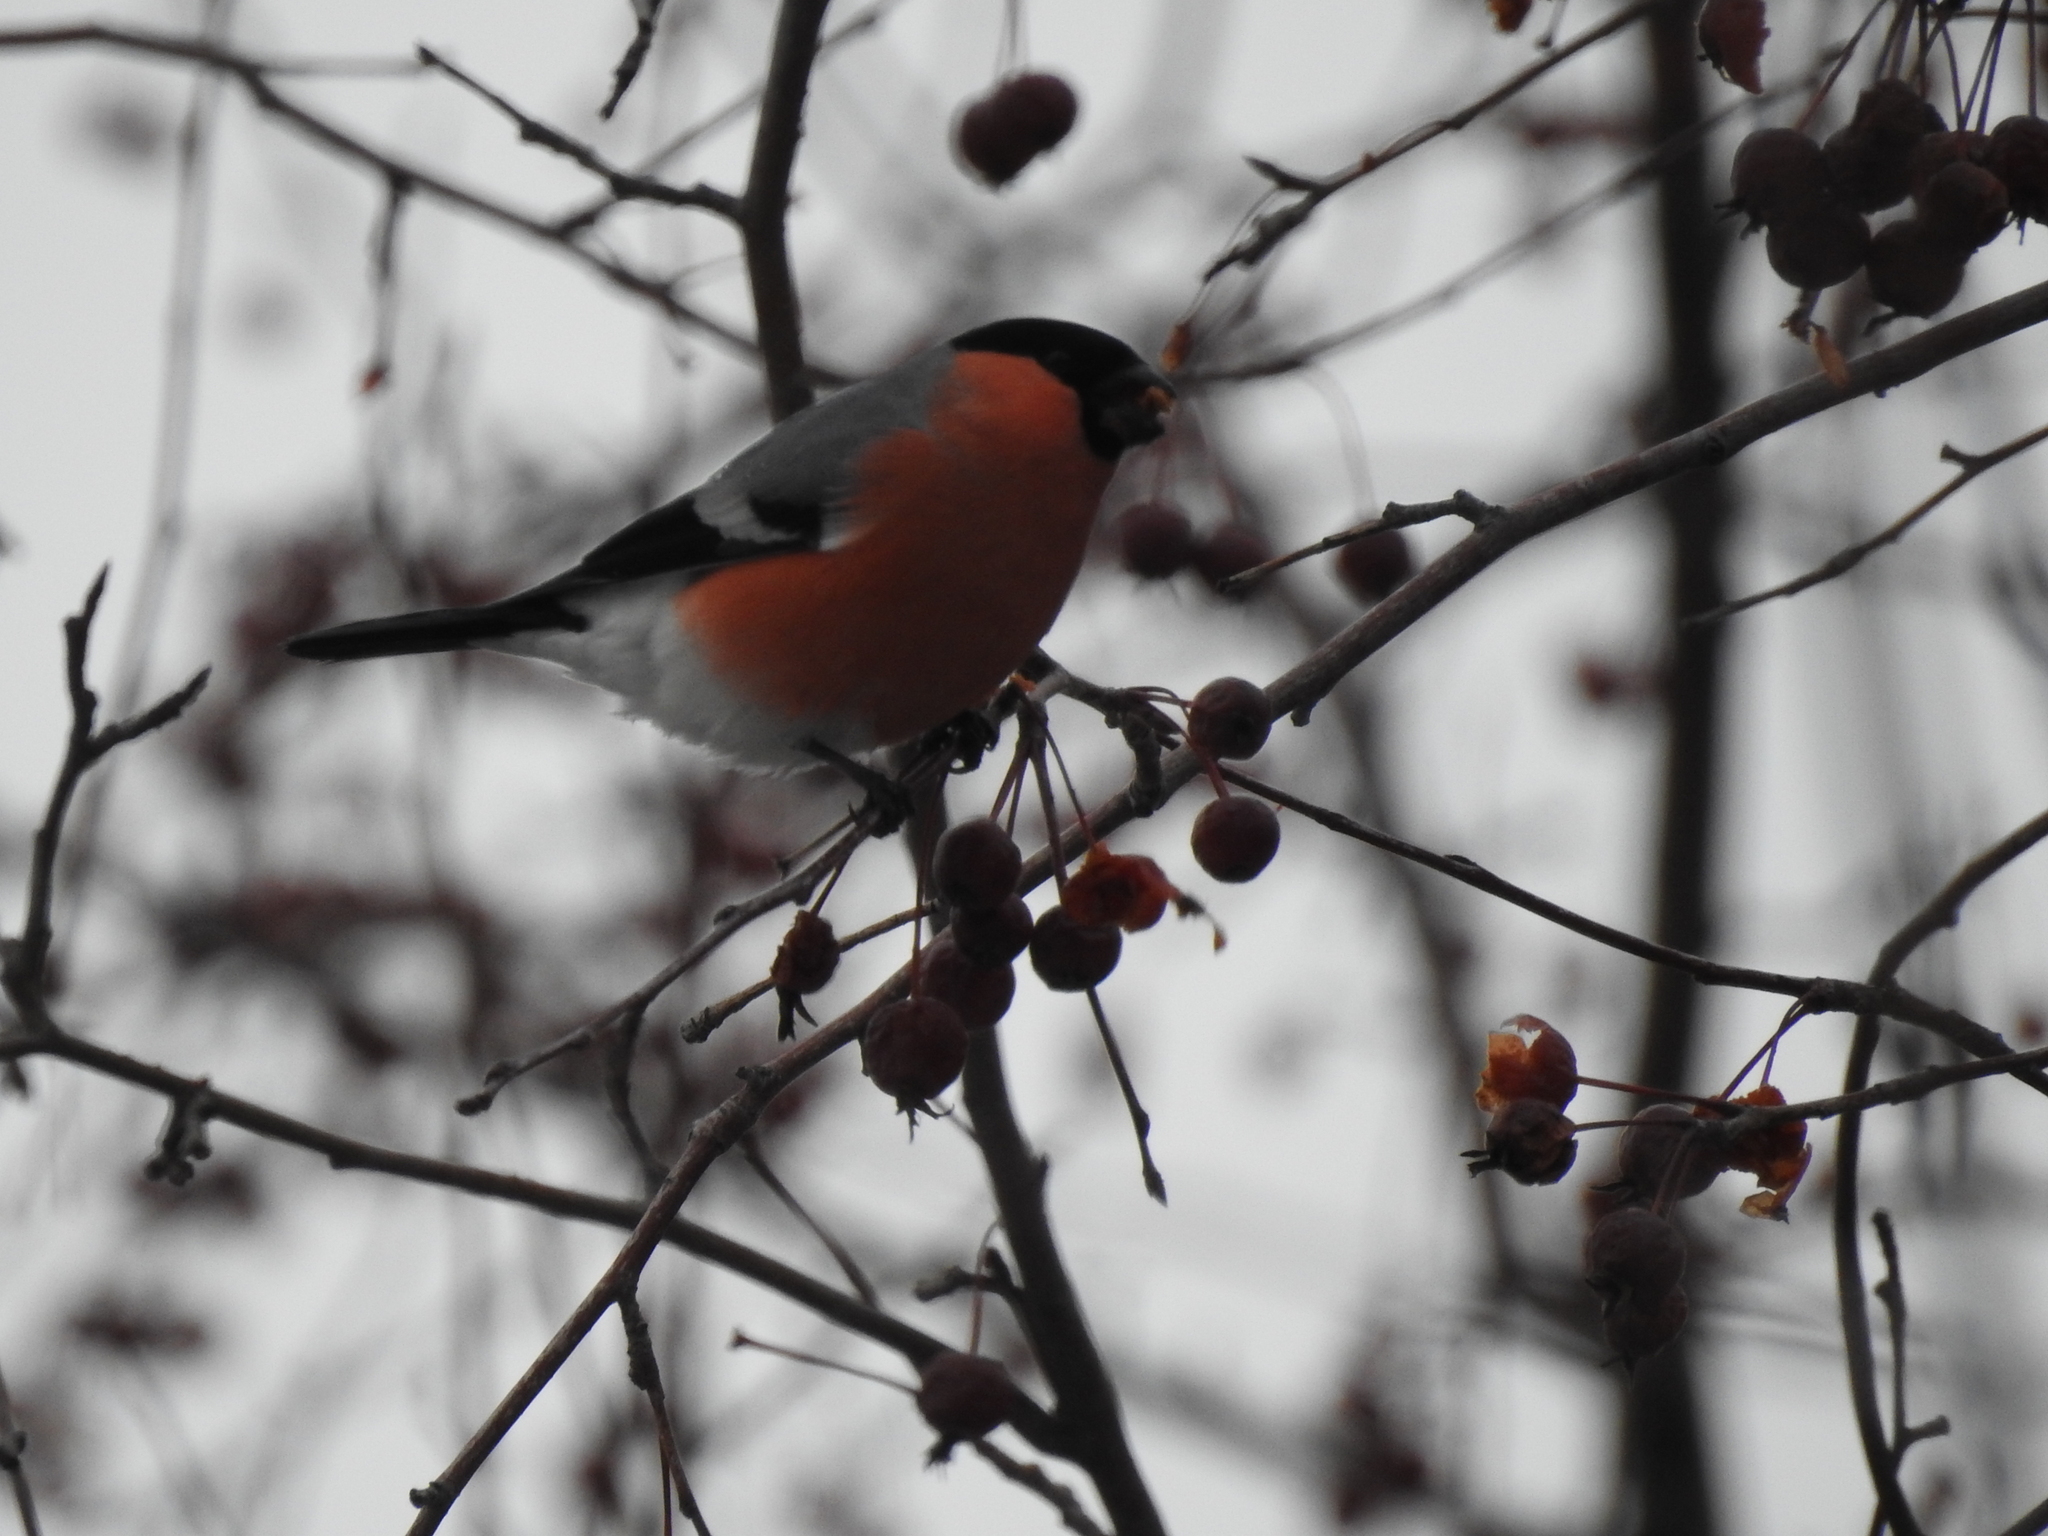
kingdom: Animalia
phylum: Chordata
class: Aves
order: Passeriformes
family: Fringillidae
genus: Pyrrhula
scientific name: Pyrrhula pyrrhula
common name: Eurasian bullfinch
